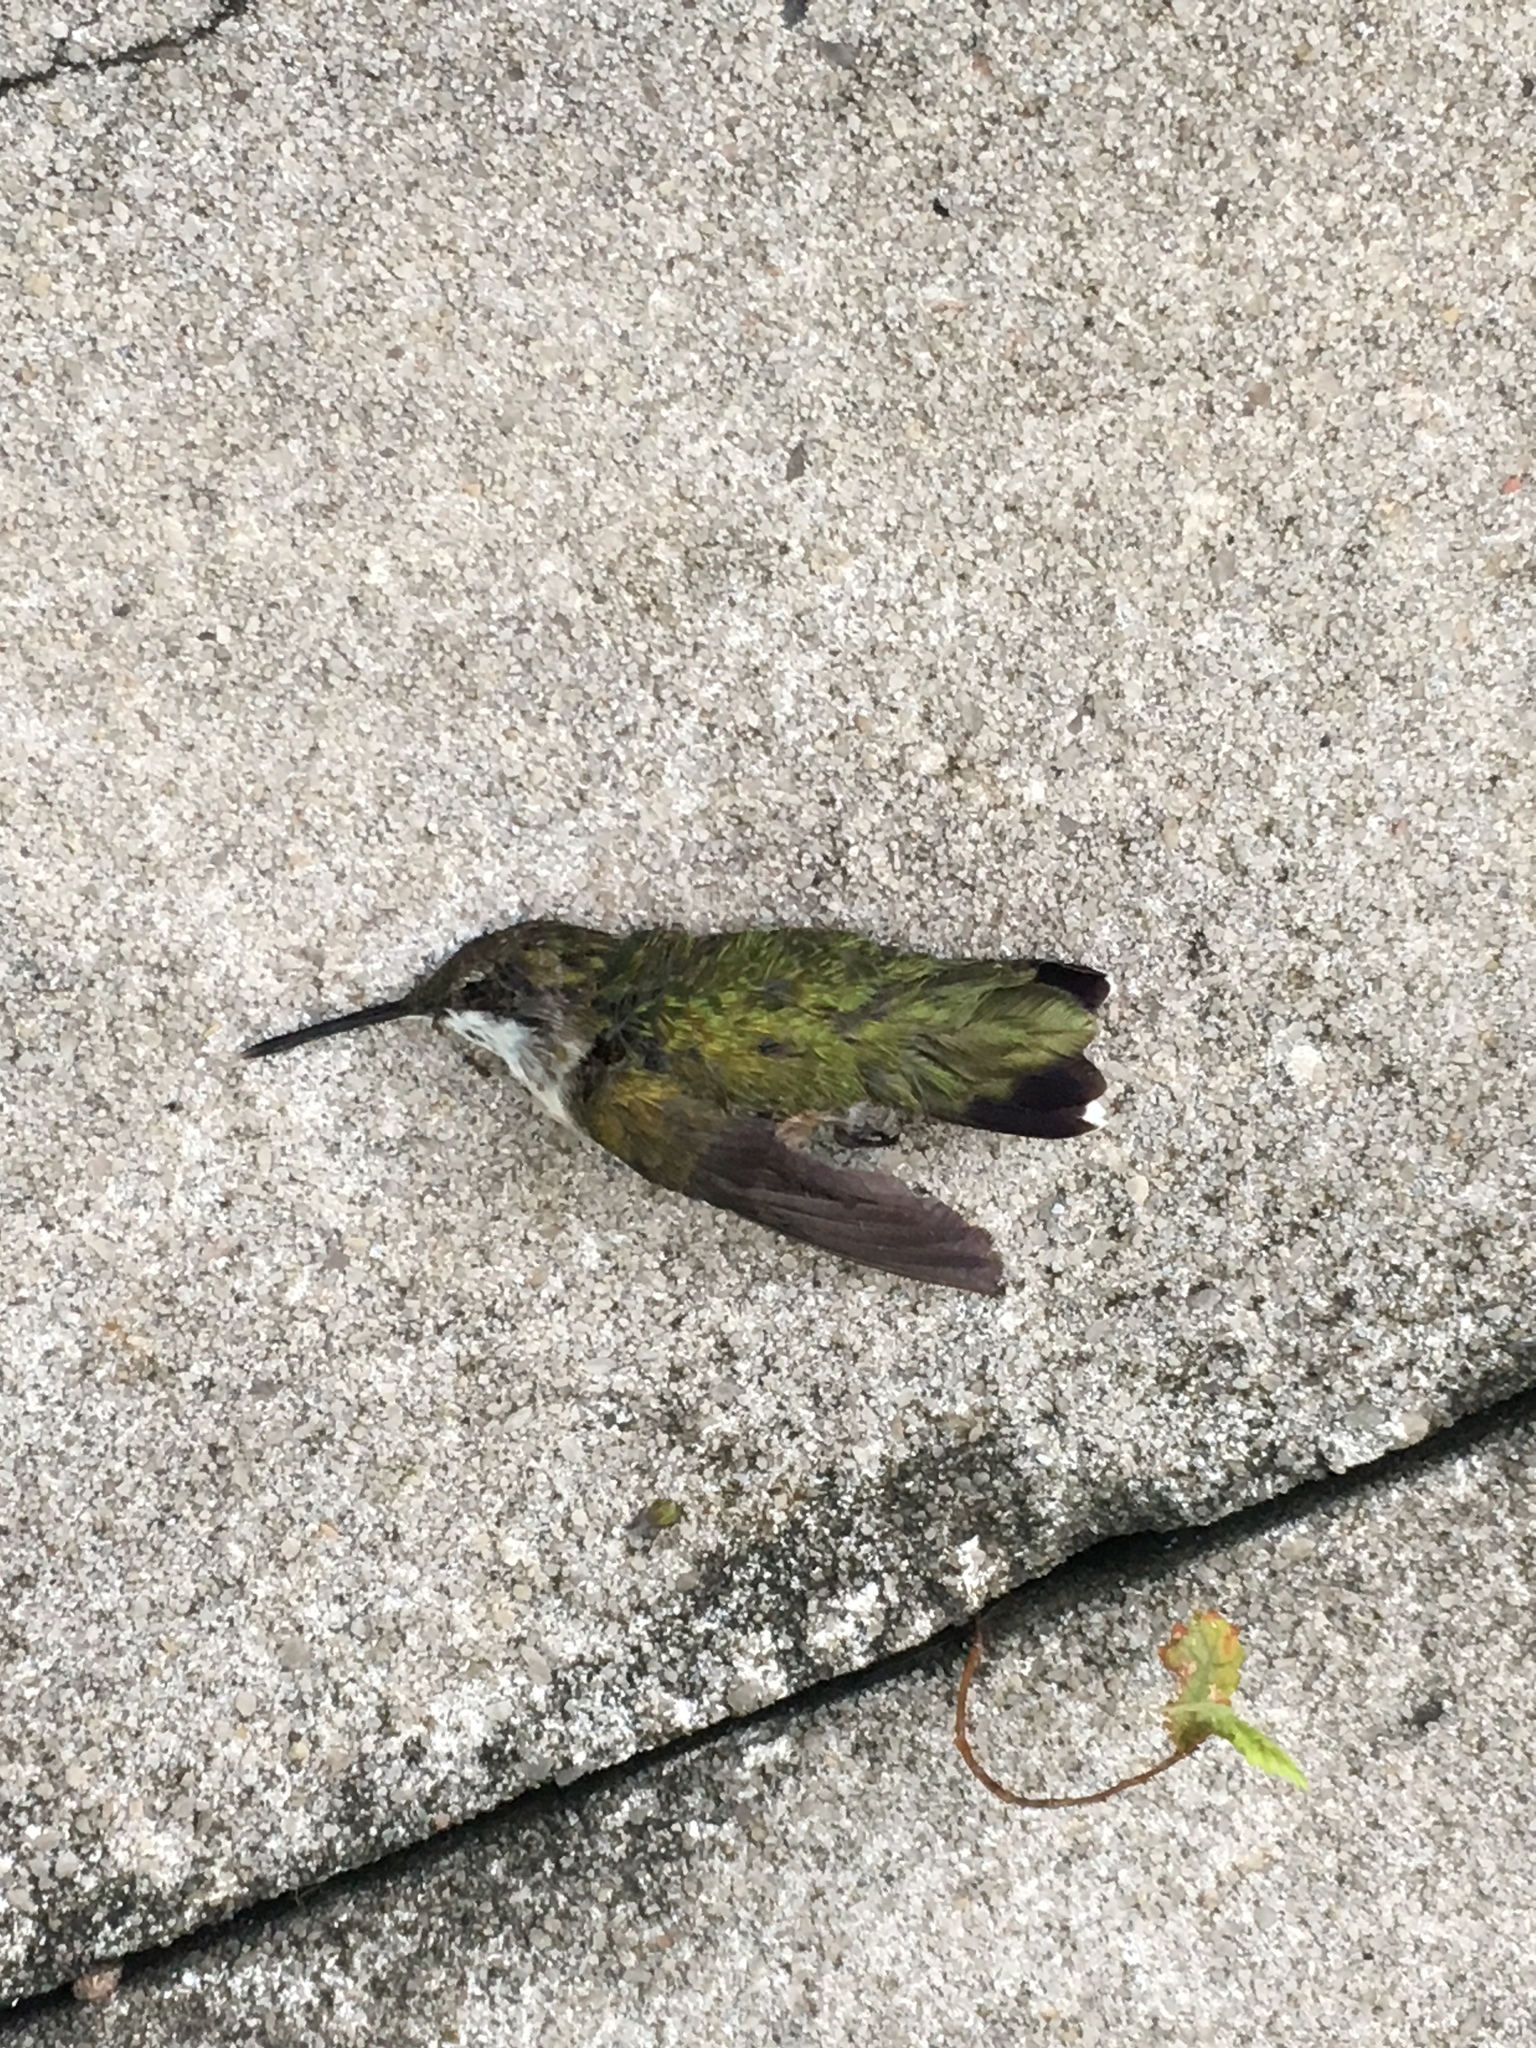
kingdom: Animalia
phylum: Chordata
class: Aves
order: Apodiformes
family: Trochilidae
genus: Archilochus
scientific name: Archilochus colubris
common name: Ruby-throated hummingbird
